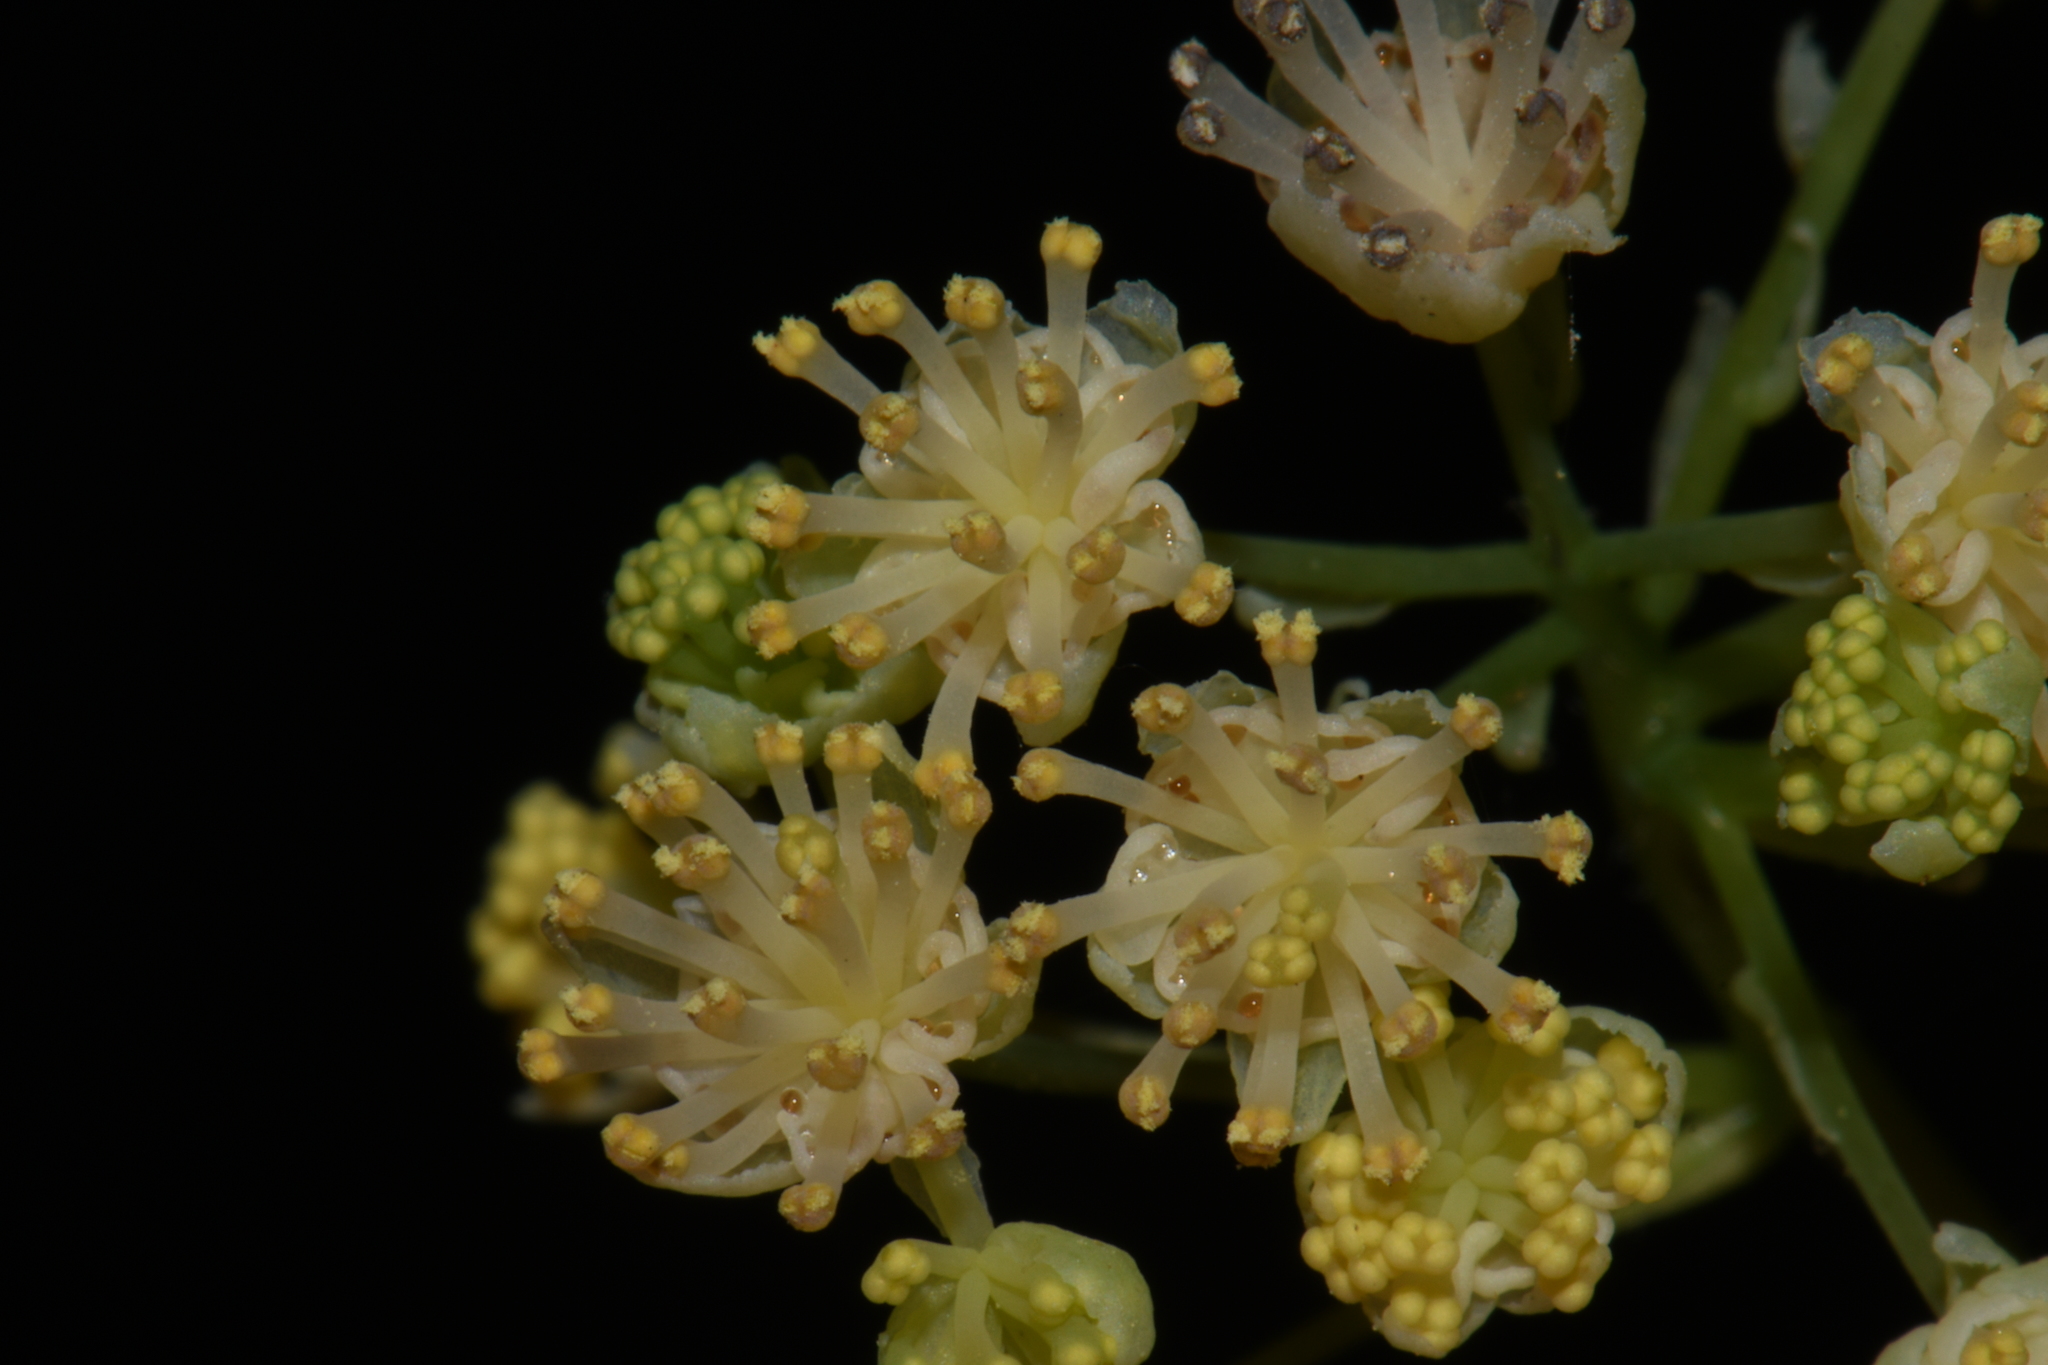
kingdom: Plantae
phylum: Tracheophyta
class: Magnoliopsida
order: Ranunculales
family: Menispermaceae
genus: Menispermum
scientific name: Menispermum canadense
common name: Moonseed
